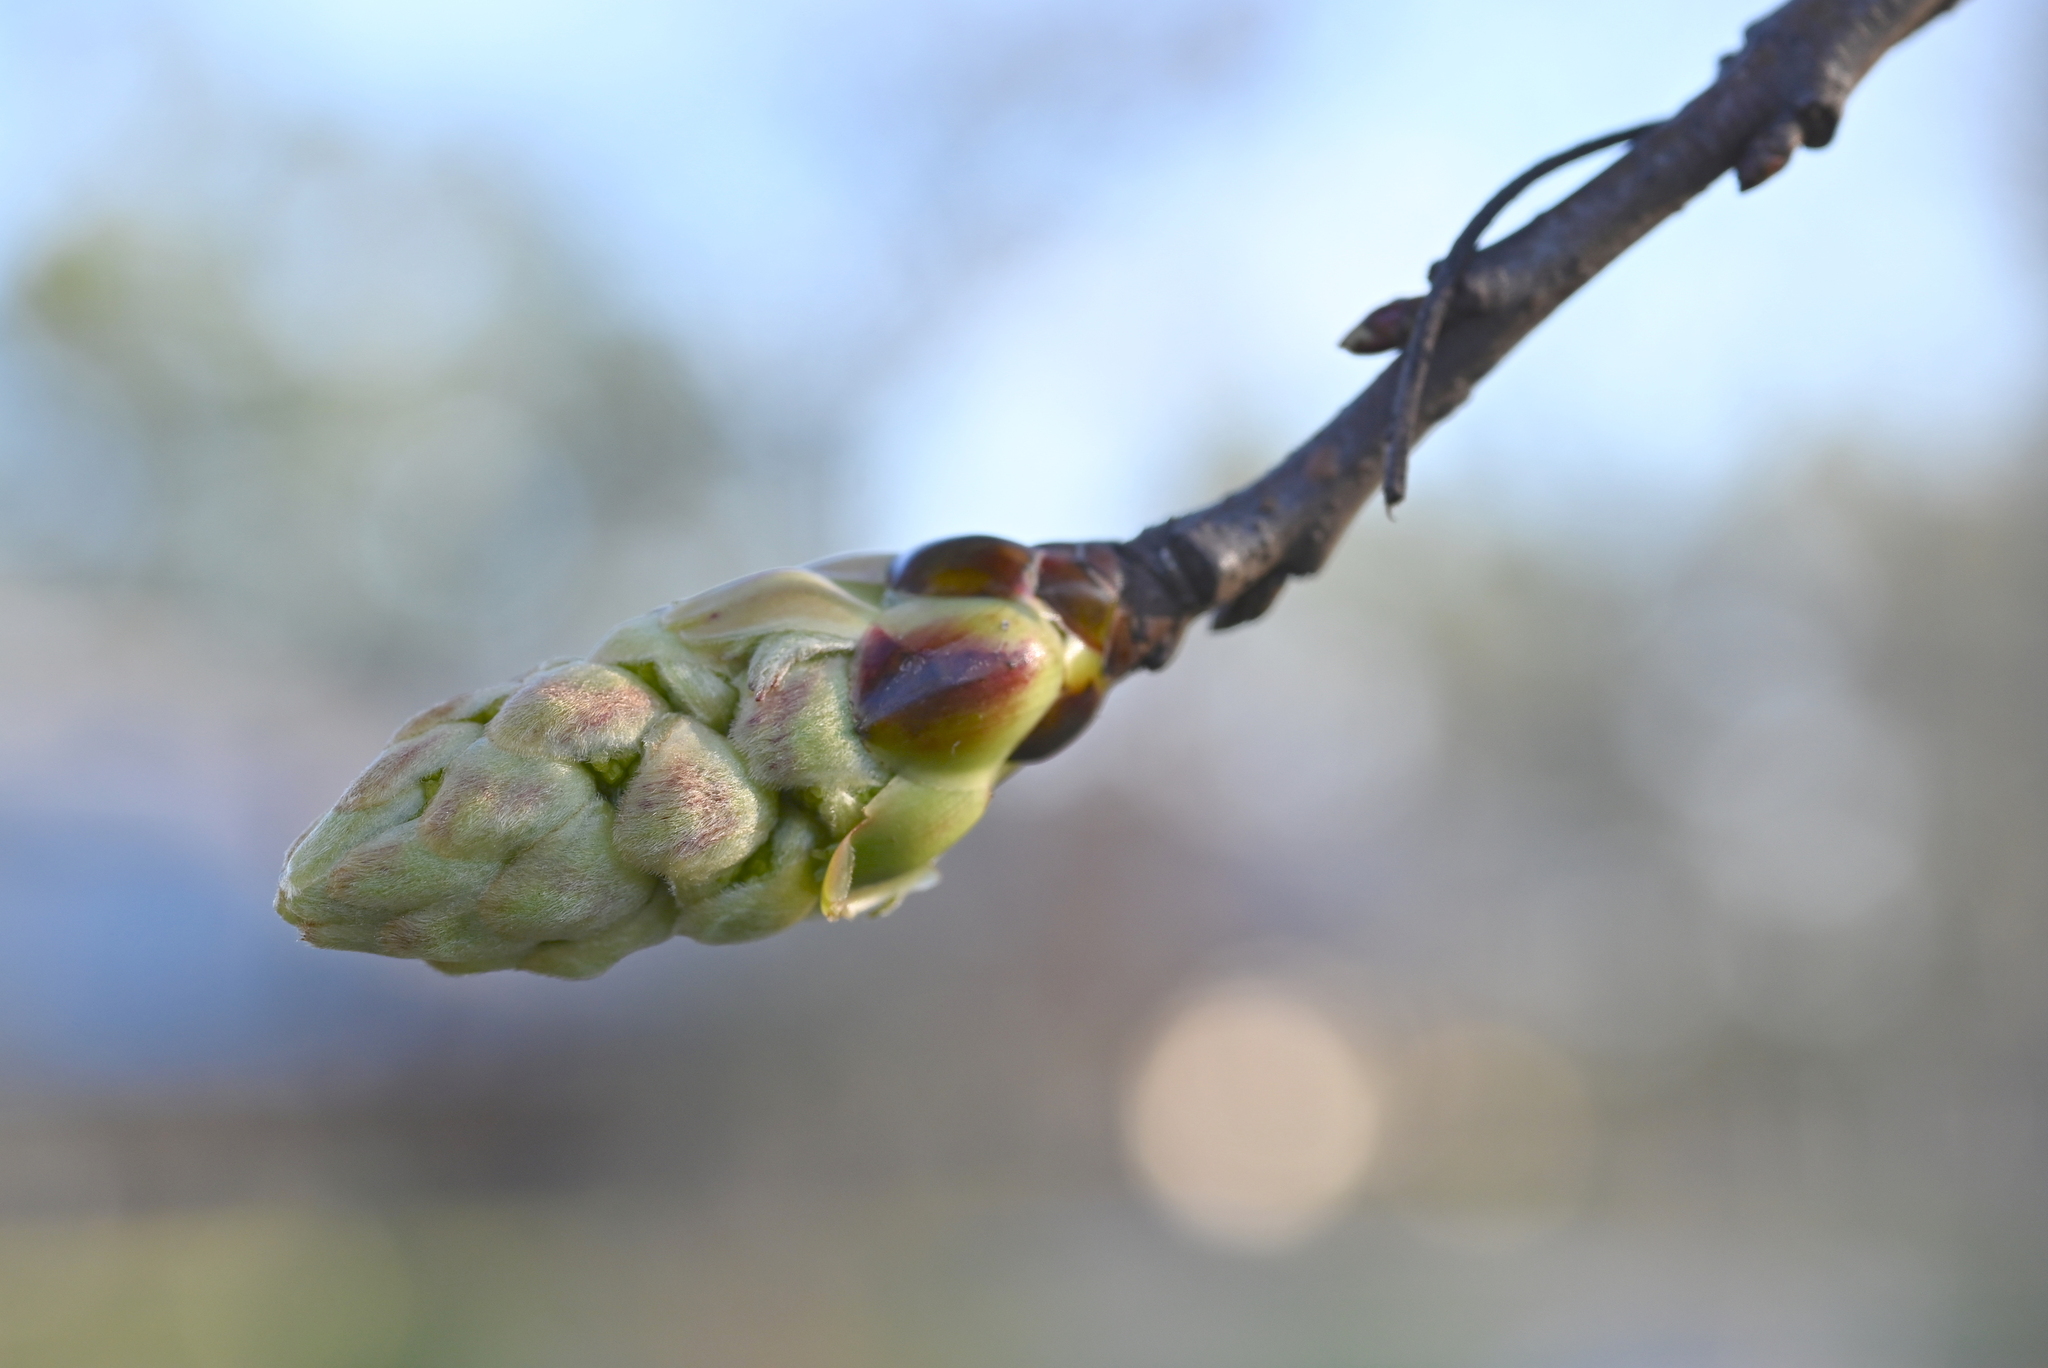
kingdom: Plantae
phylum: Tracheophyta
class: Magnoliopsida
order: Saxifragales
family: Altingiaceae
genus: Liquidambar
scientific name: Liquidambar styraciflua
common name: Sweet gum
